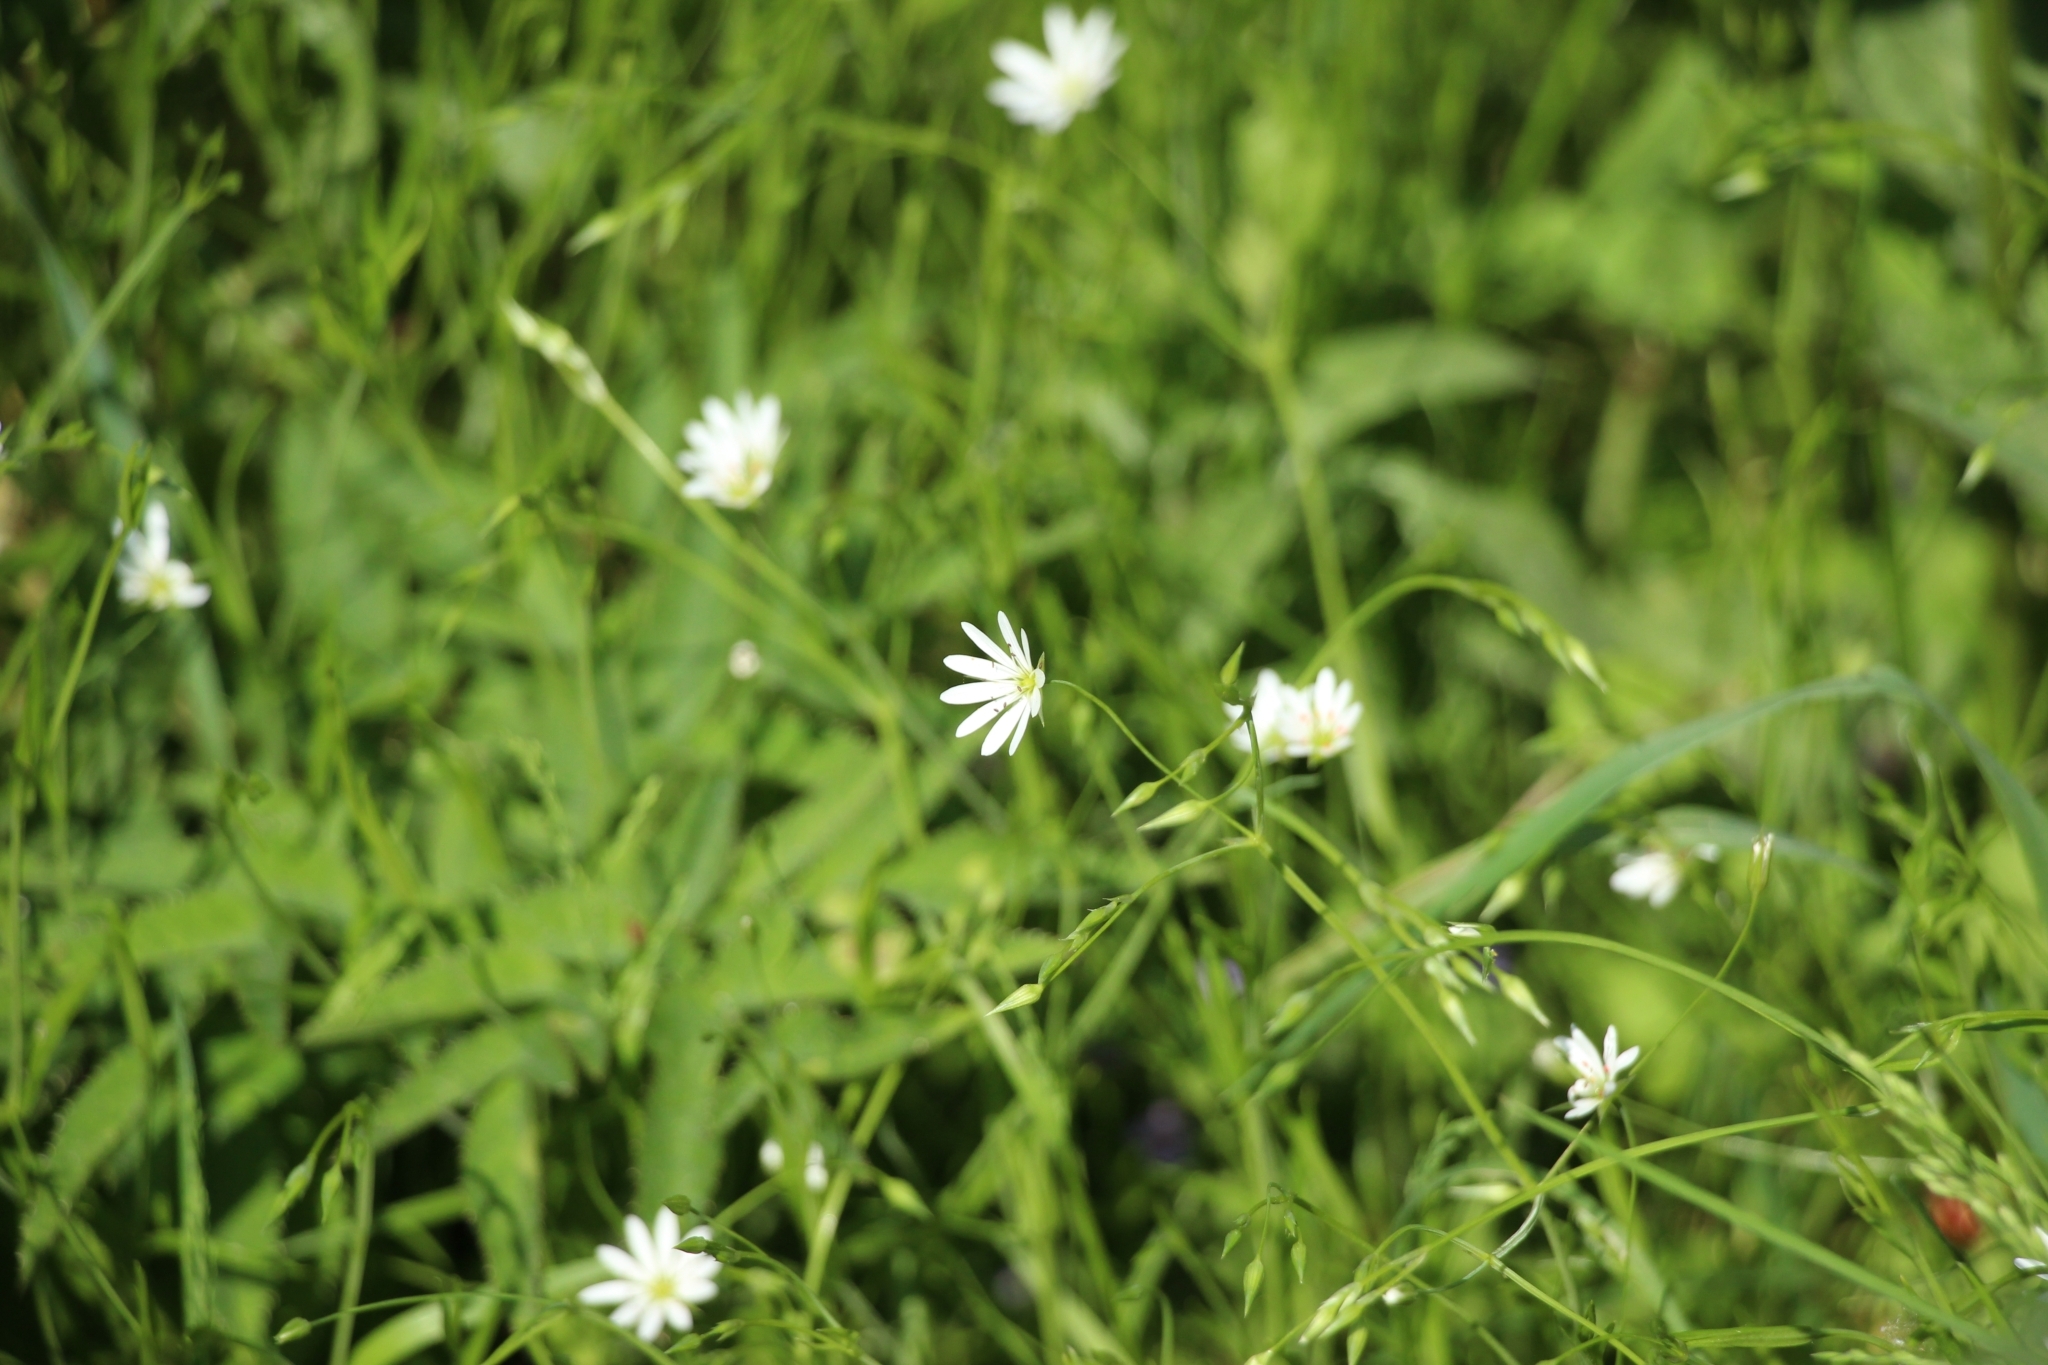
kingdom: Plantae
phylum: Tracheophyta
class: Magnoliopsida
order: Caryophyllales
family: Caryophyllaceae
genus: Stellaria
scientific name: Stellaria graminea
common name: Grass-like starwort
